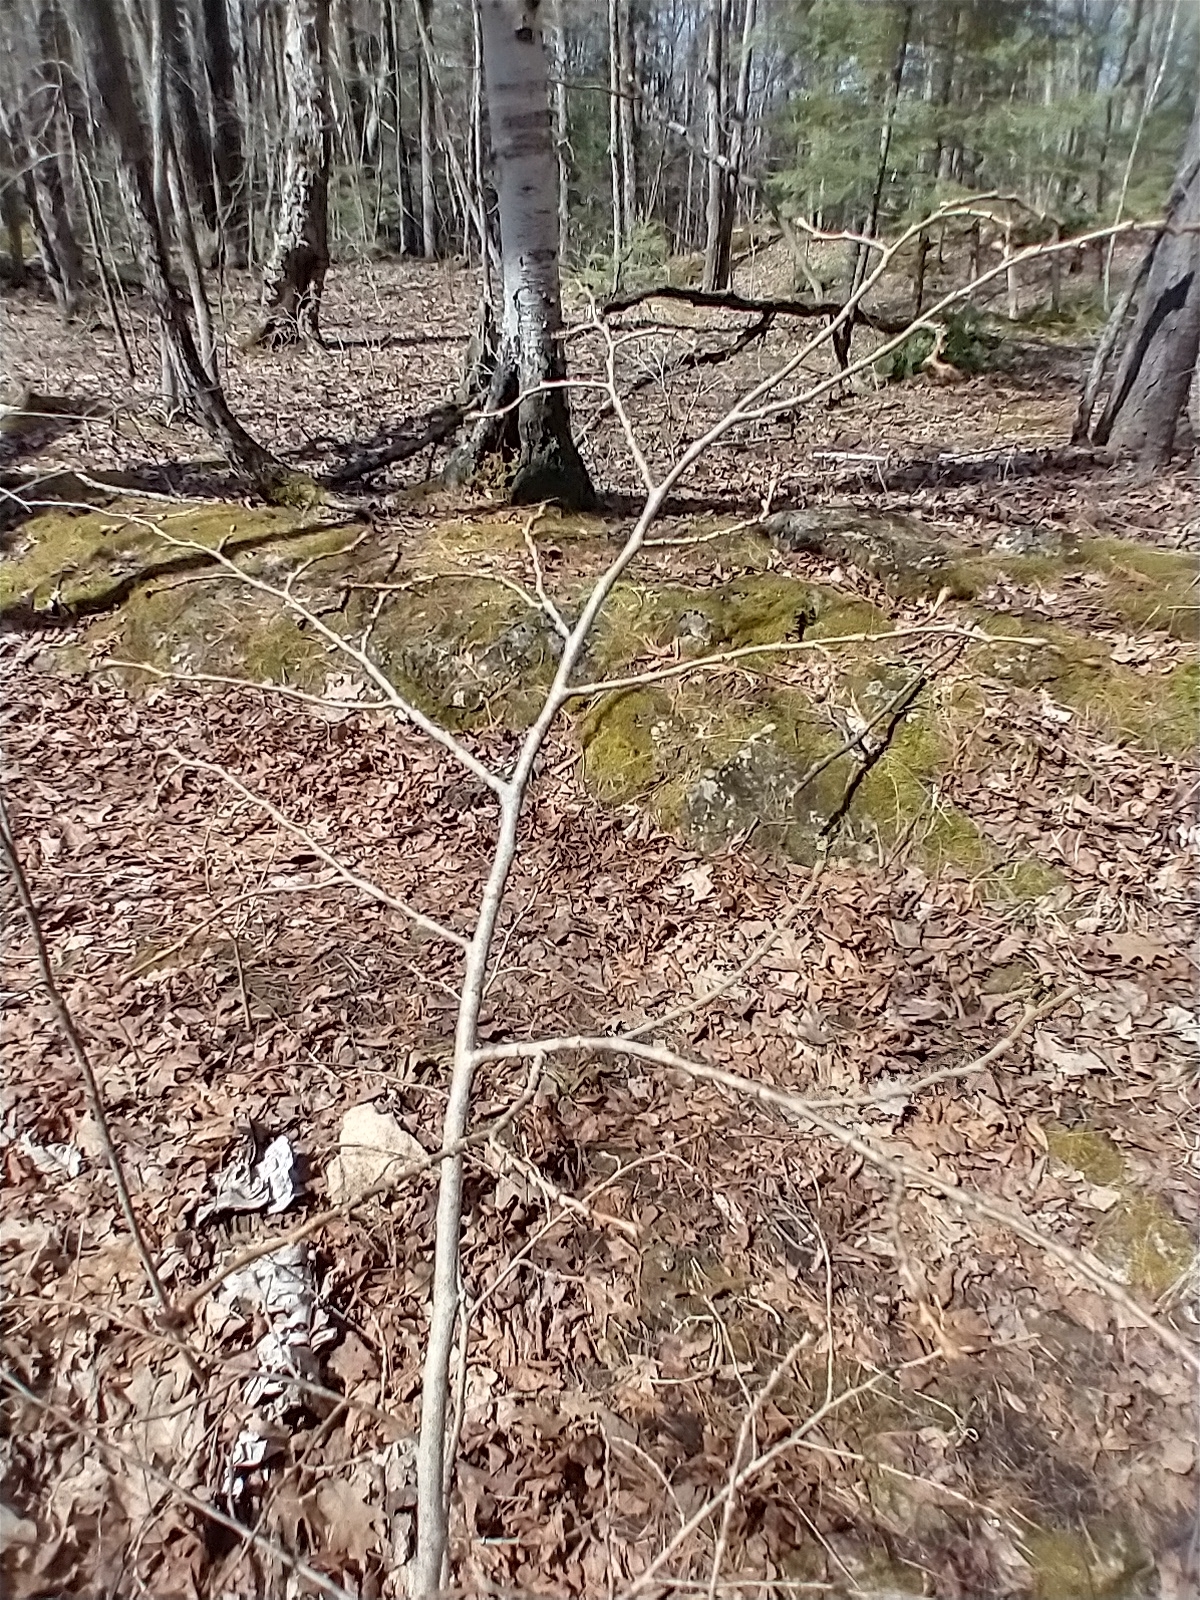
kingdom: Plantae
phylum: Tracheophyta
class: Magnoliopsida
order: Malvales
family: Thymelaeaceae
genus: Dirca
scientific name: Dirca palustris
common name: Leatherwood
